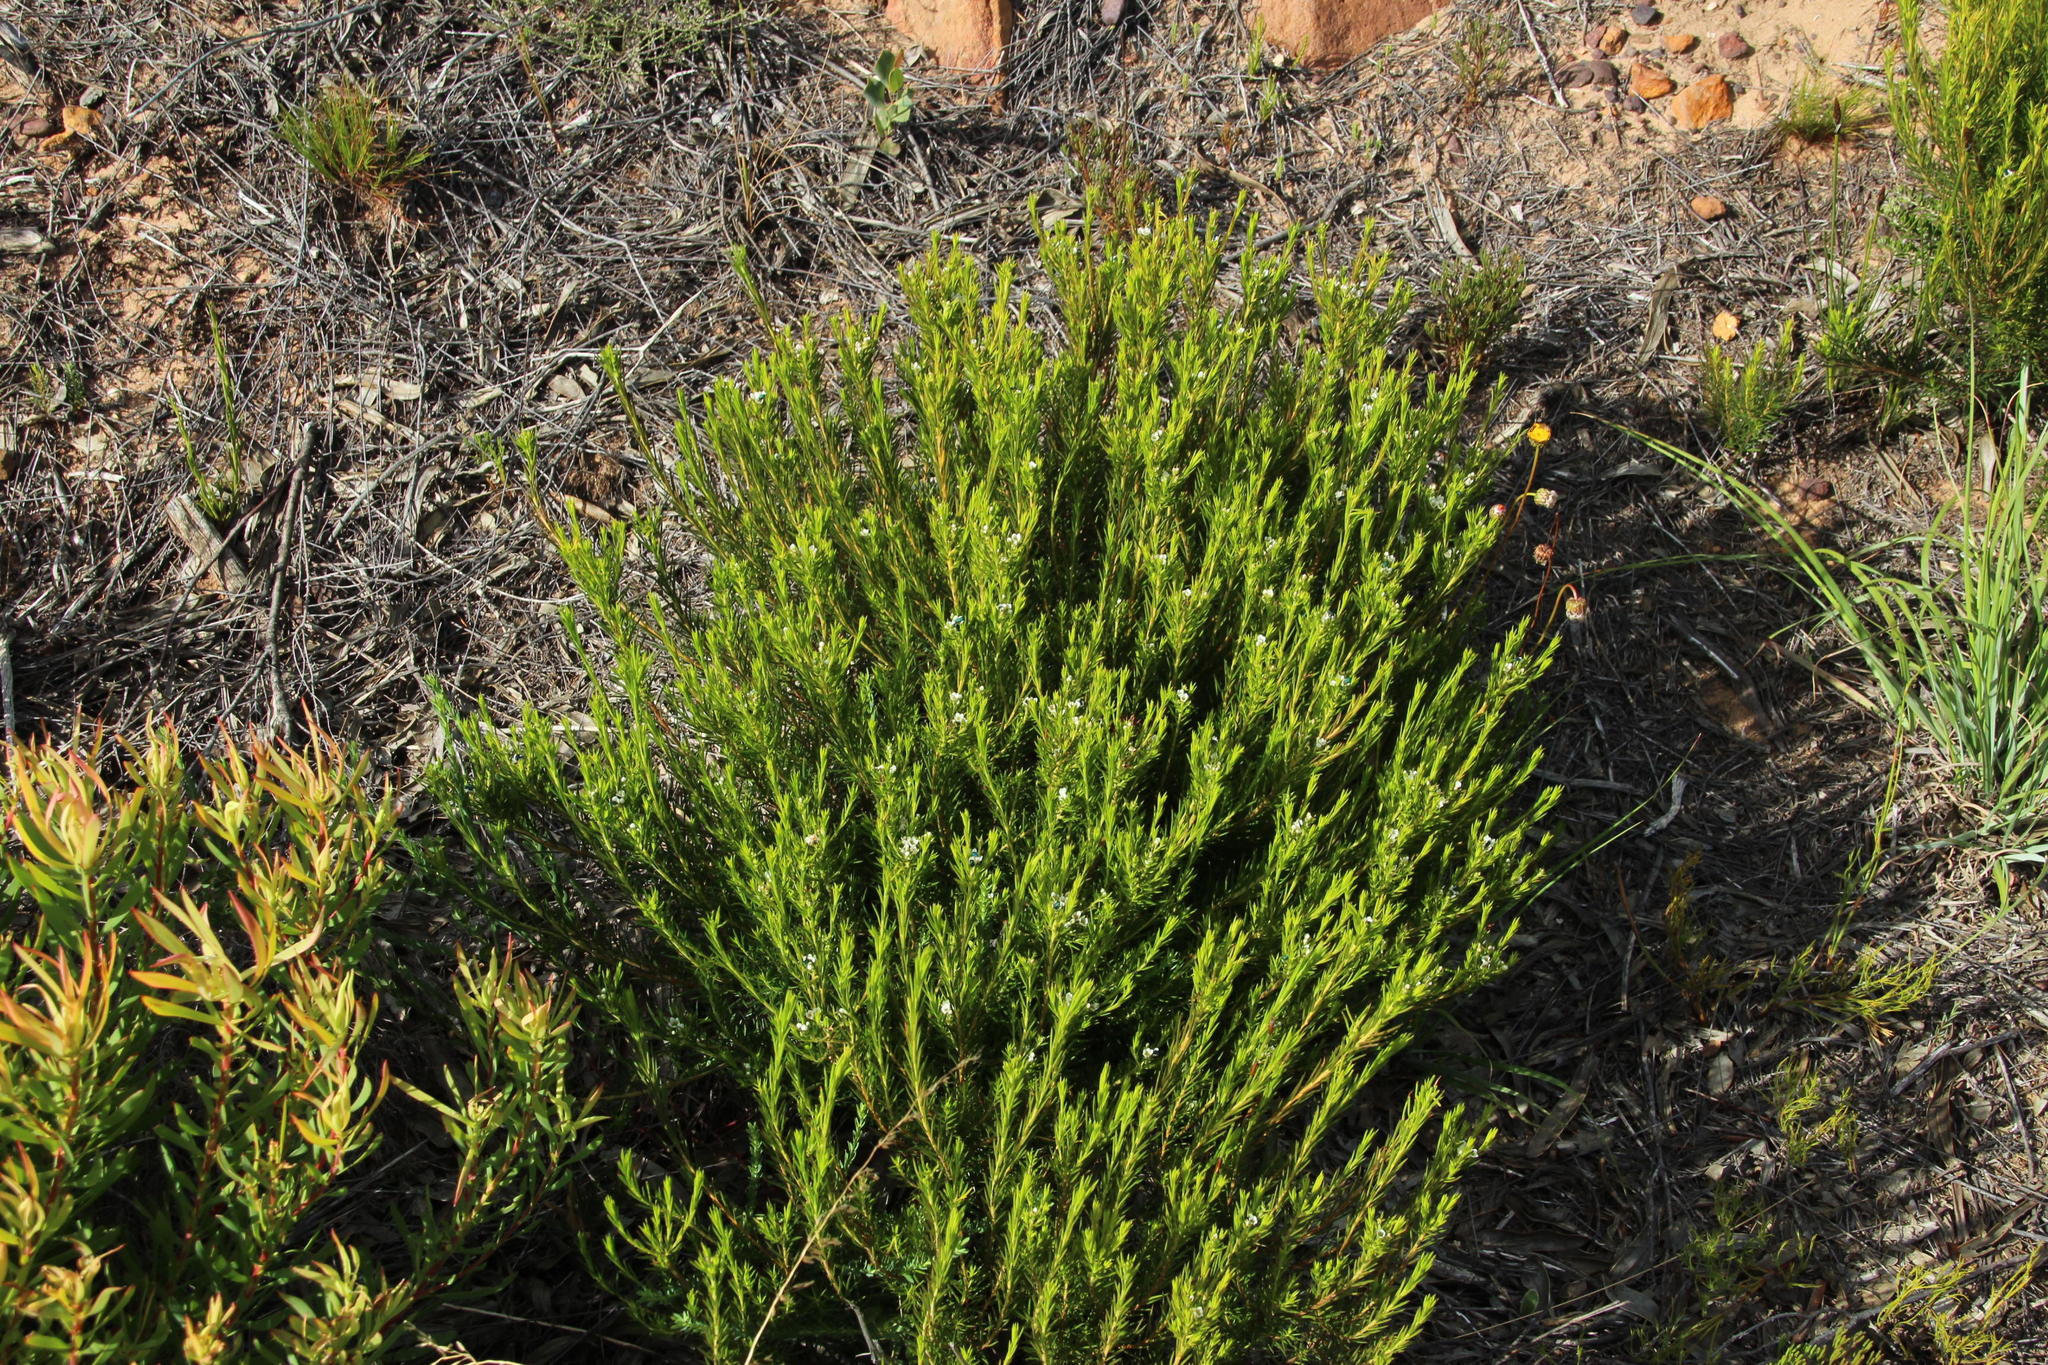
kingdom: Plantae
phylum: Tracheophyta
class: Magnoliopsida
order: Sapindales
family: Rutaceae
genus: Diosma
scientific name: Diosma hirsuta
